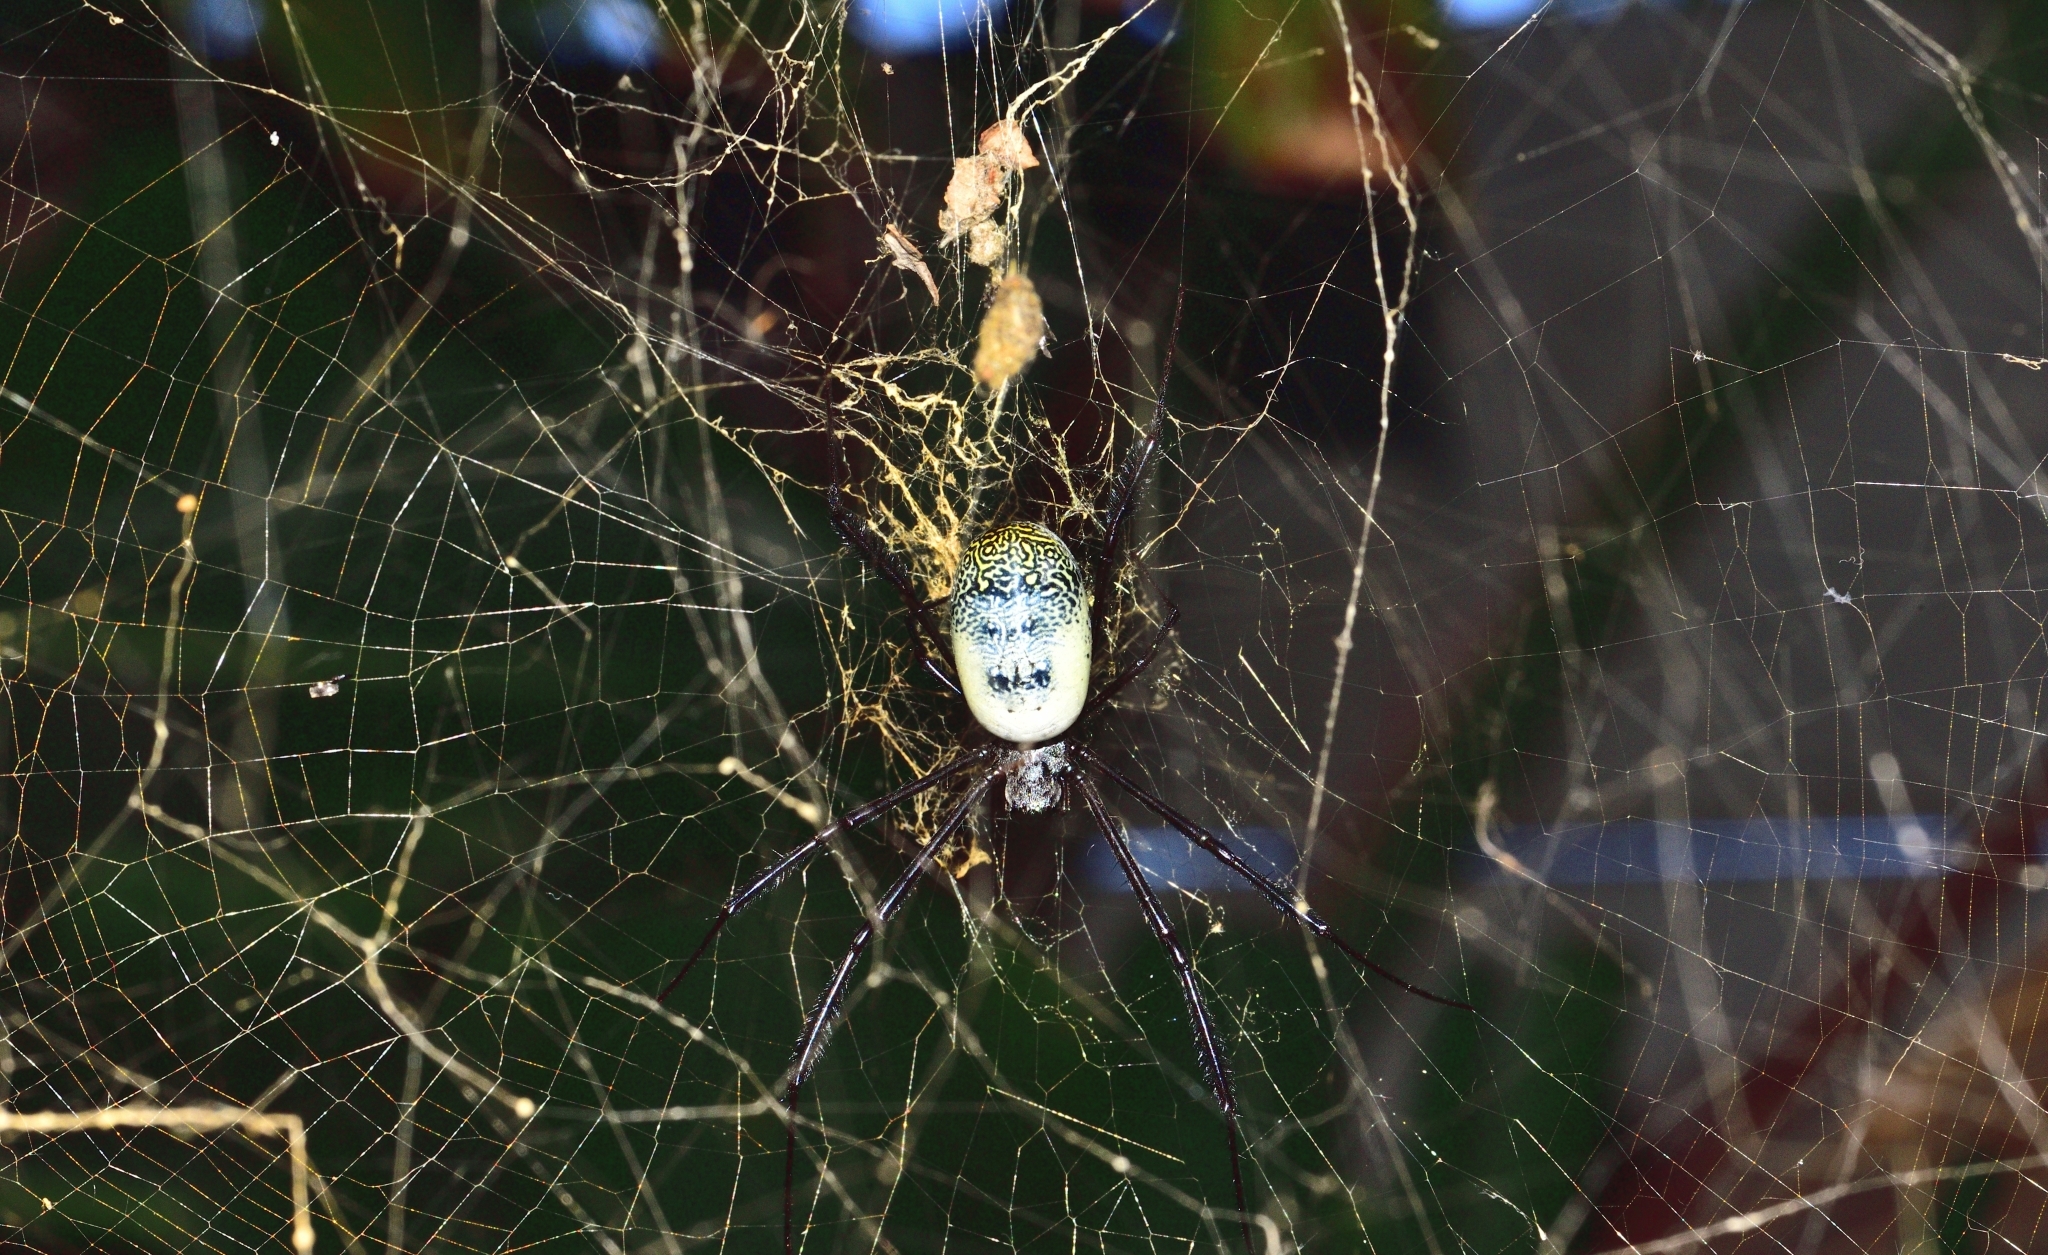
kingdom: Animalia
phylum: Arthropoda
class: Arachnida
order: Araneae
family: Araneidae
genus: Trichonephila
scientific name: Trichonephila fenestrata
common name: Hairy golden orb weaver
